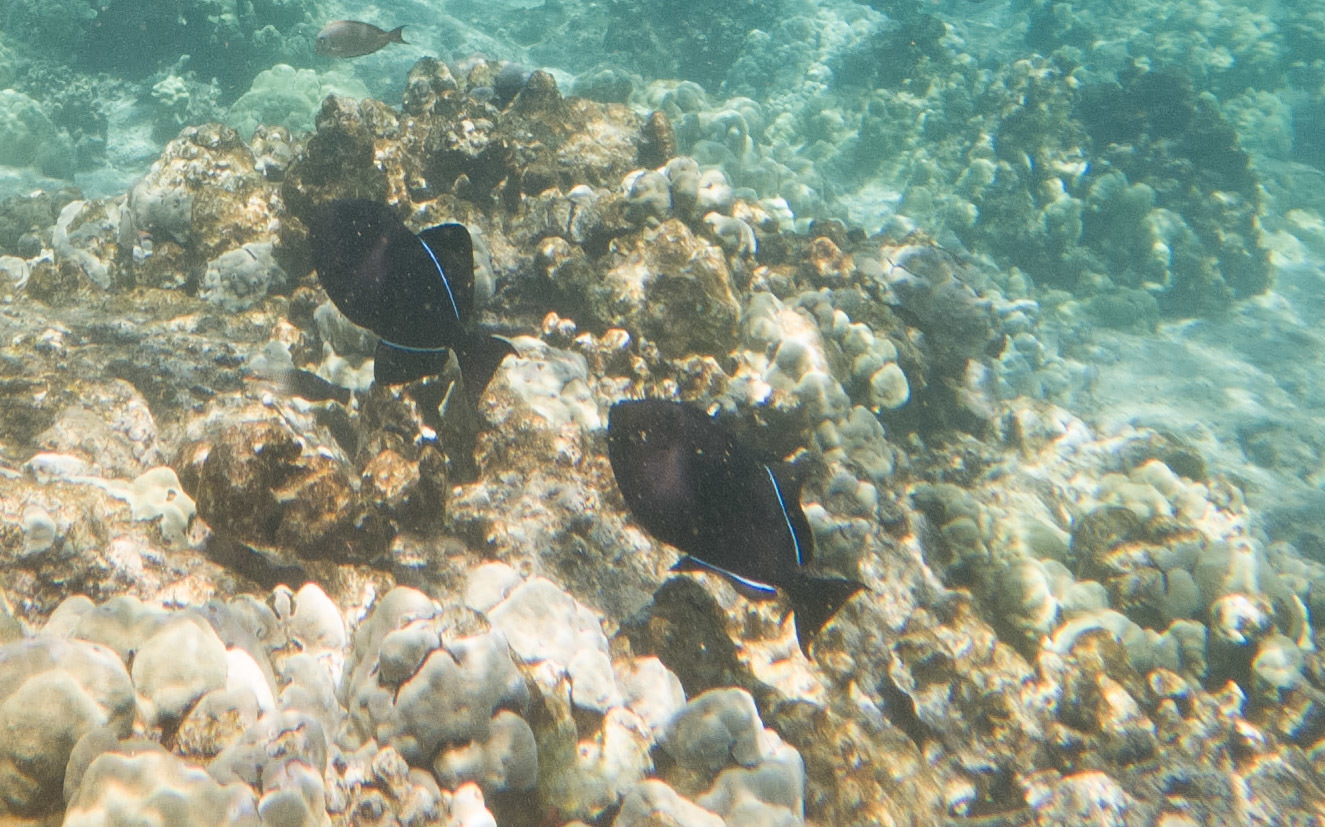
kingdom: Animalia
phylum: Chordata
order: Tetraodontiformes
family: Balistidae
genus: Melichthys
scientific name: Melichthys niger
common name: Black durgon
